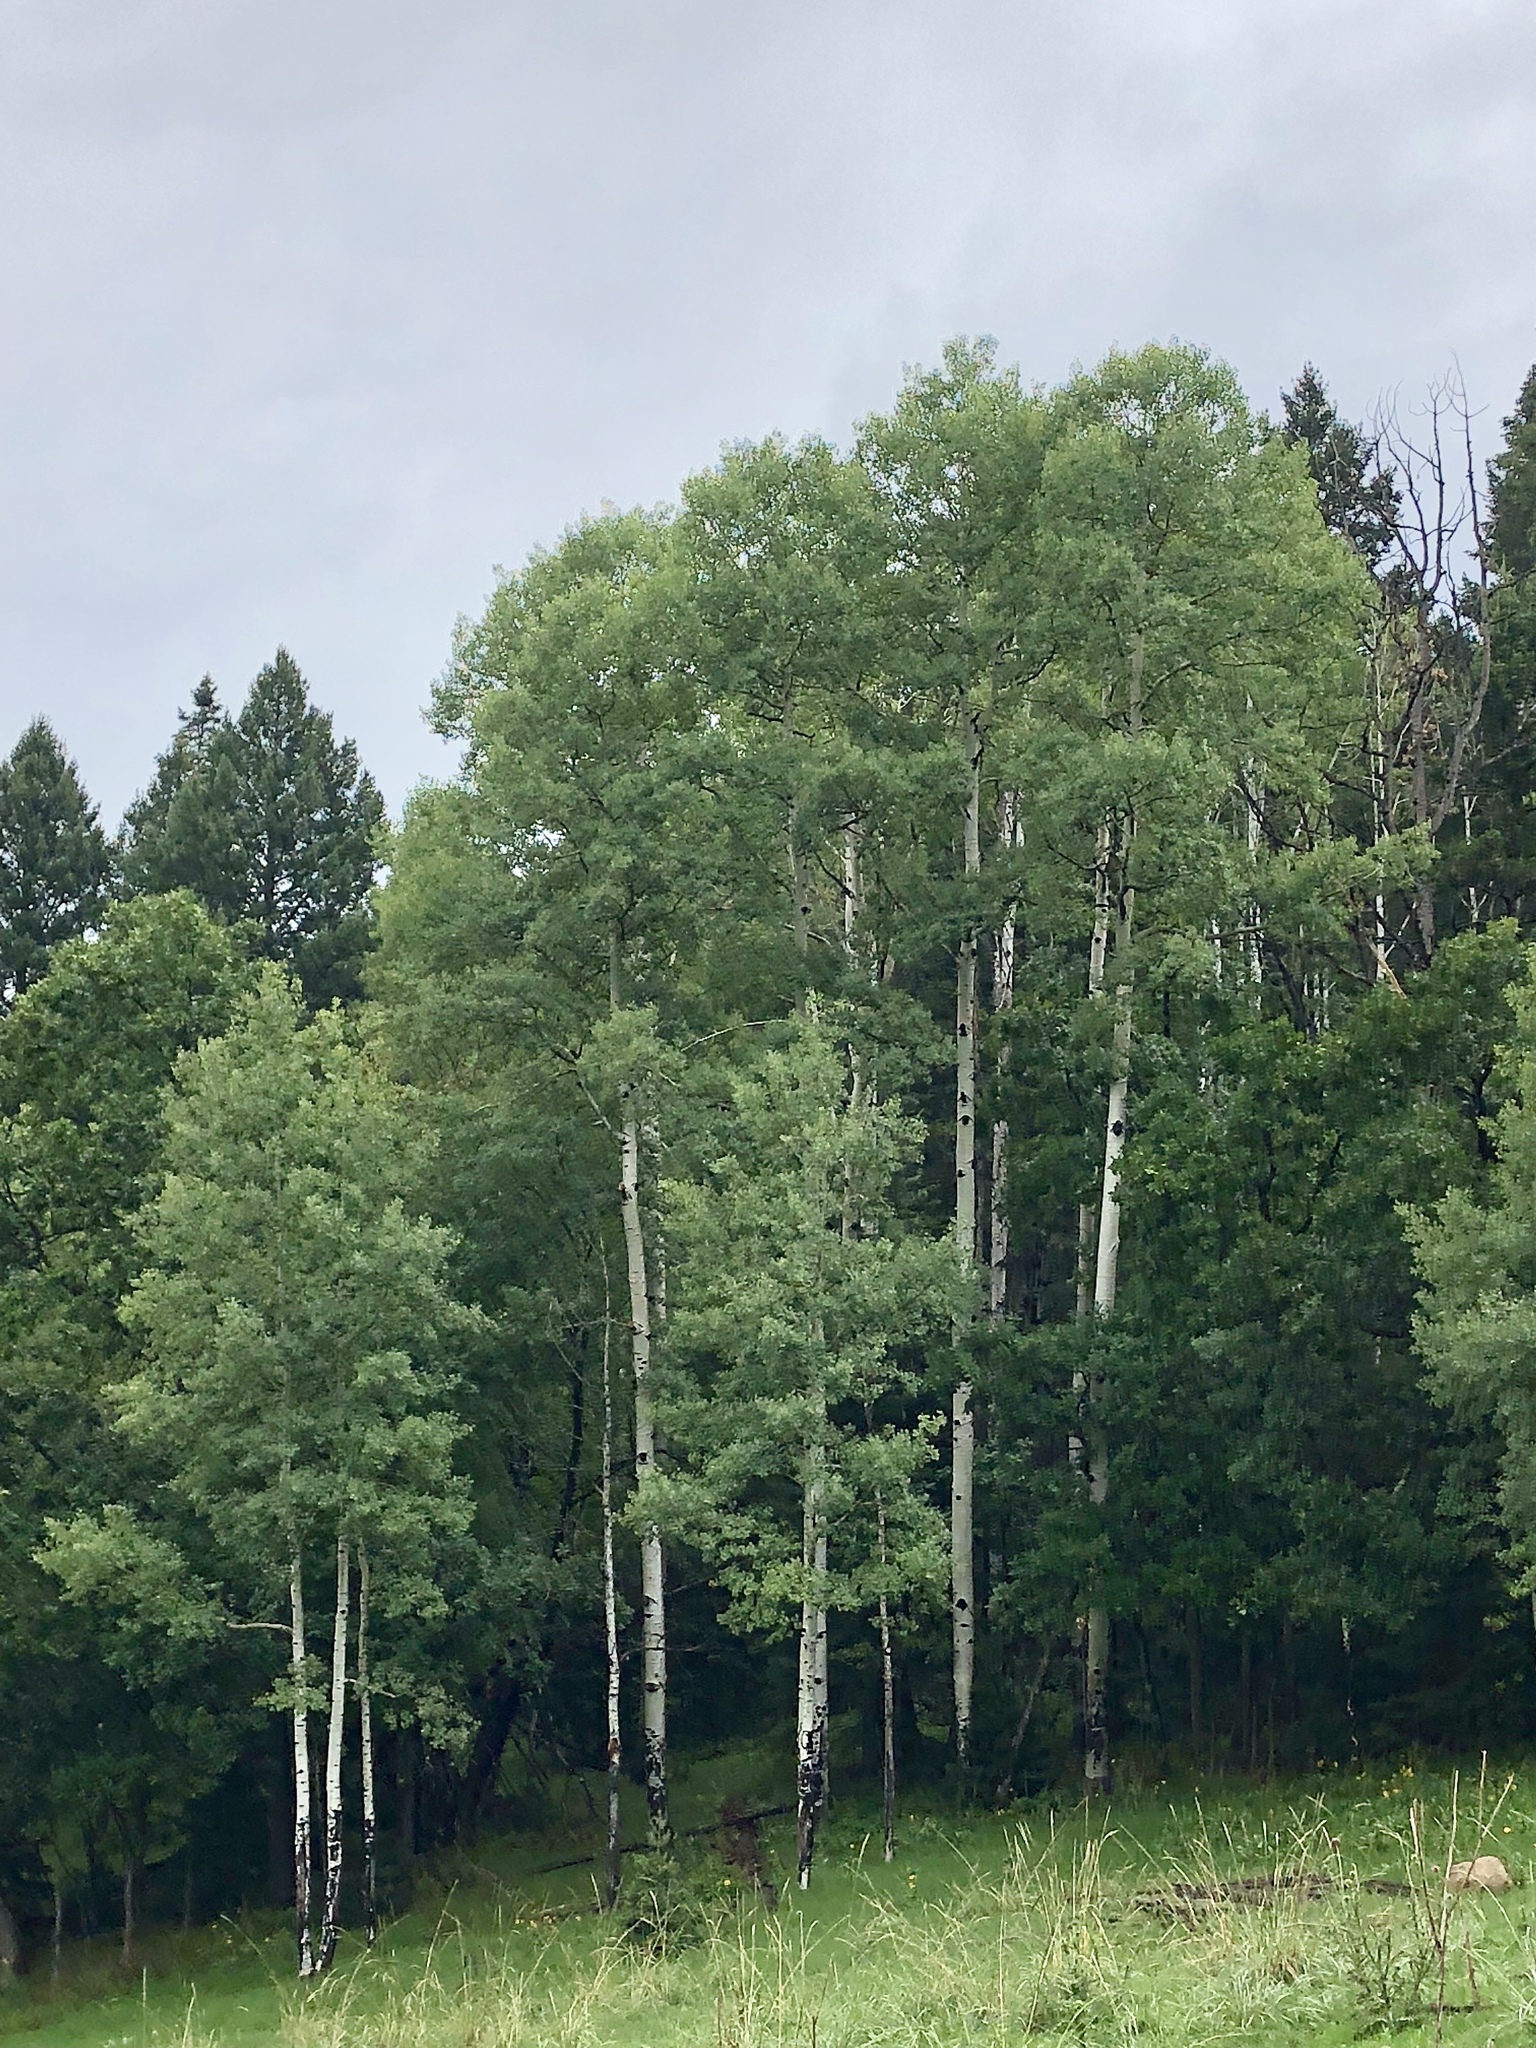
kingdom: Plantae
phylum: Tracheophyta
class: Magnoliopsida
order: Malpighiales
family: Salicaceae
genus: Populus
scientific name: Populus tremuloides
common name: Quaking aspen
